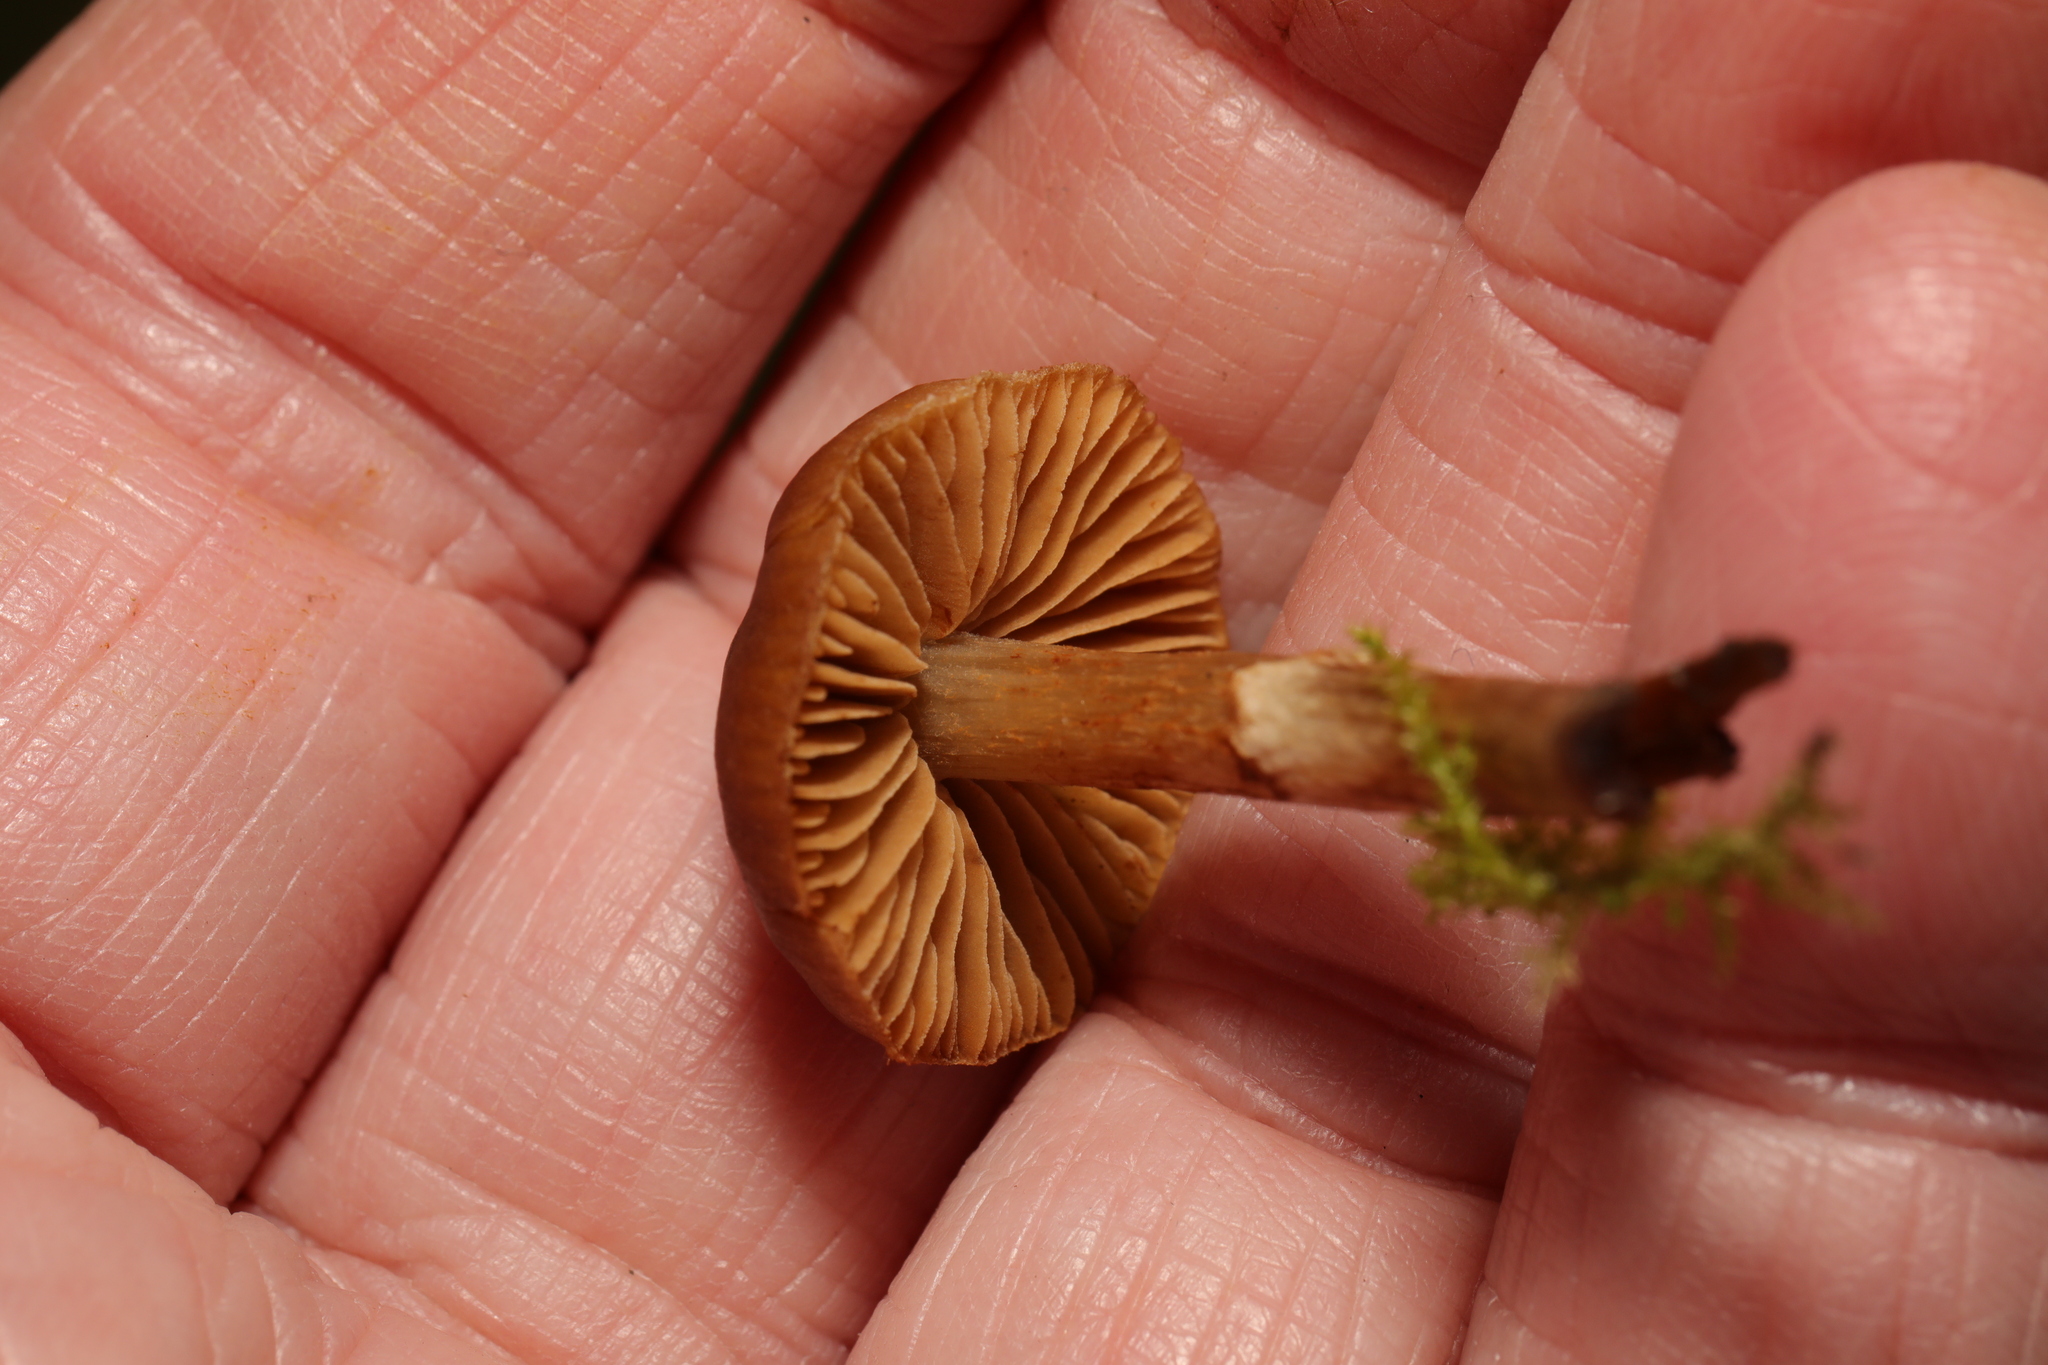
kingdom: Fungi
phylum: Basidiomycota
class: Agaricomycetes
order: Agaricales
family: Cortinariaceae
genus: Cortinarius
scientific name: Cortinarius
